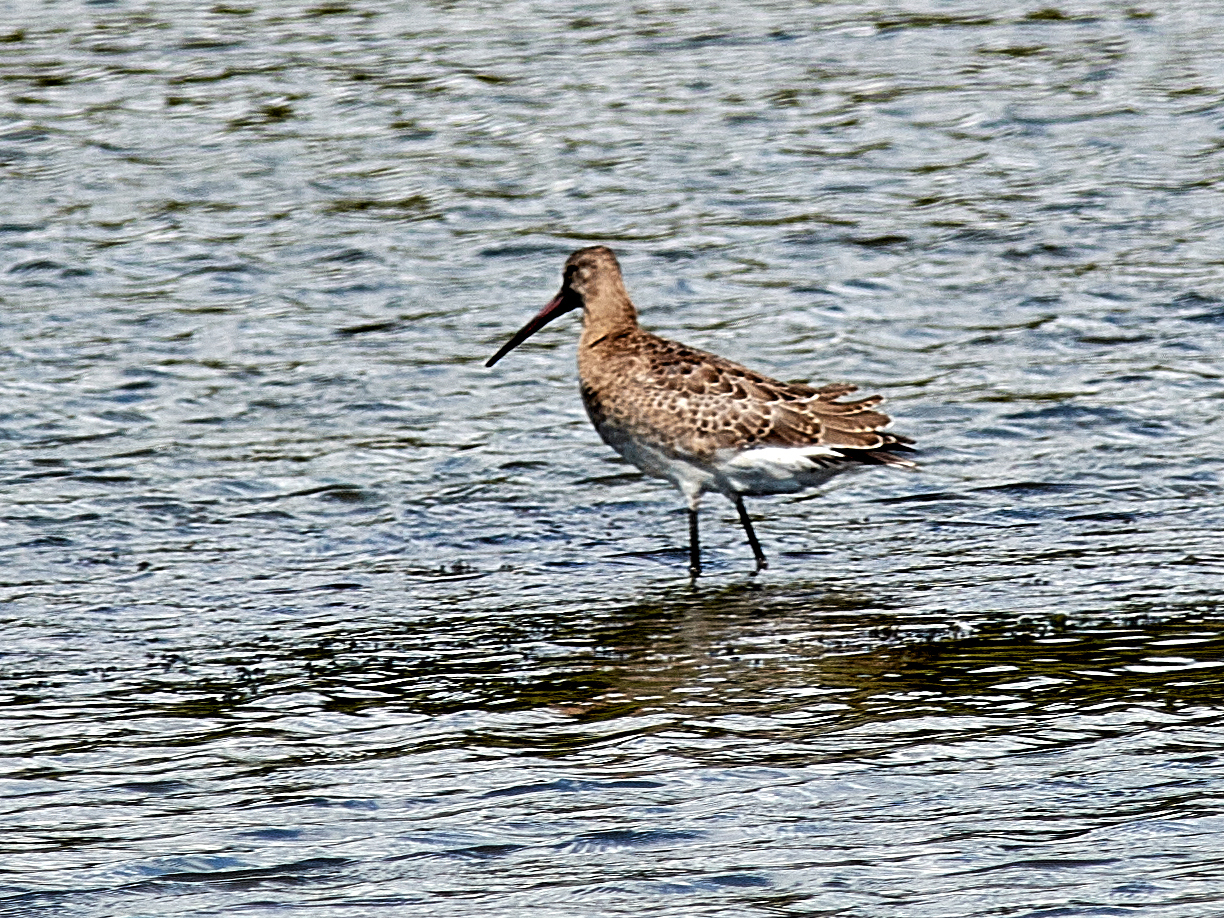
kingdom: Animalia
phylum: Chordata
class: Aves
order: Charadriiformes
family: Scolopacidae
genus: Limosa
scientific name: Limosa limosa
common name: Black-tailed godwit
